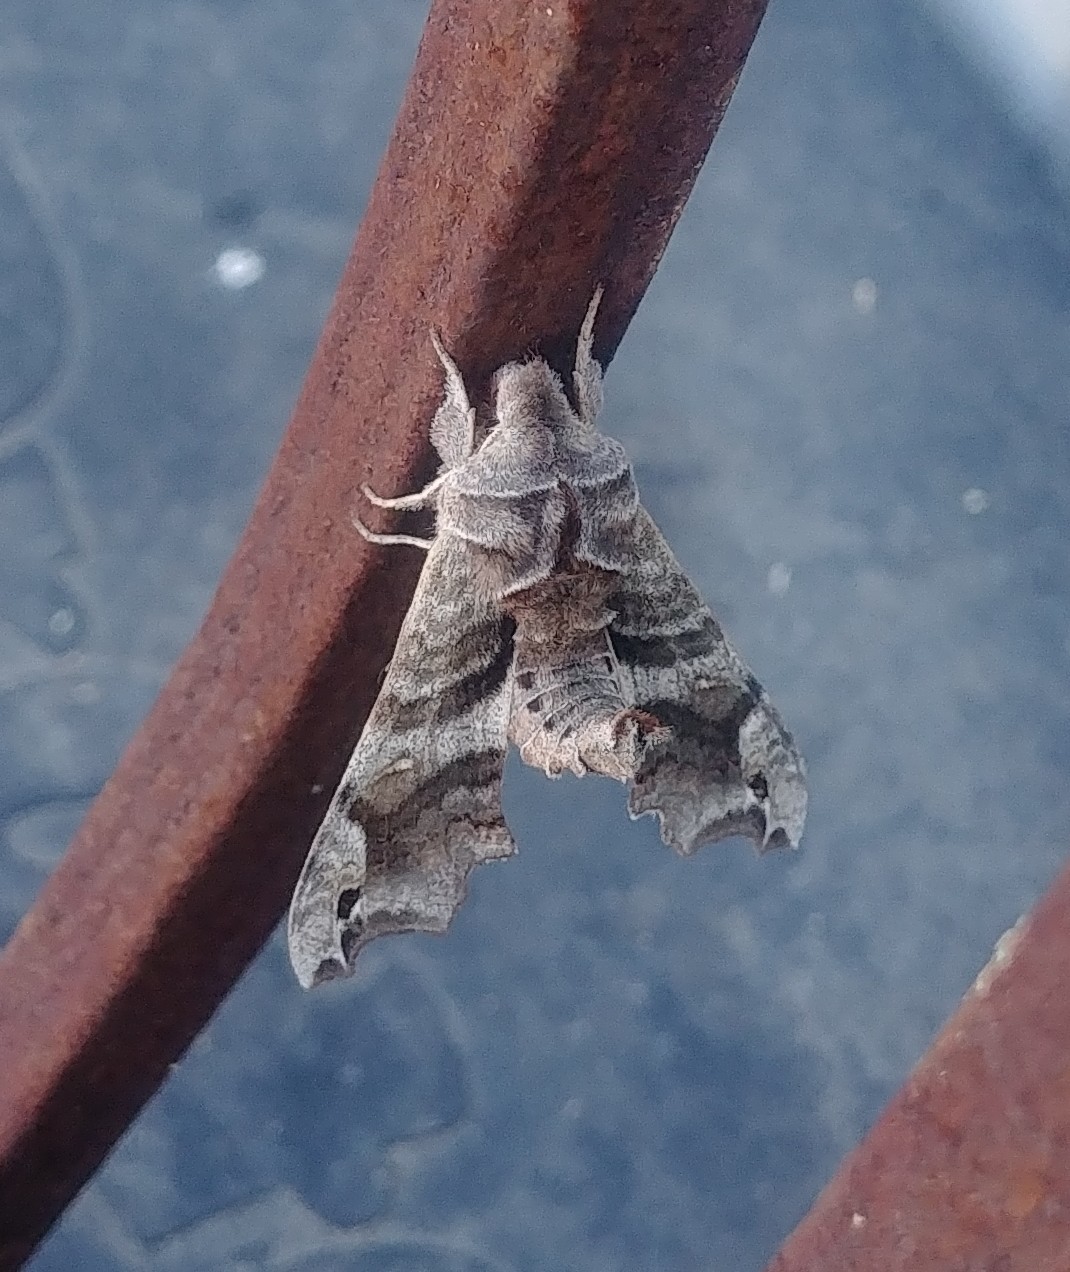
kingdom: Animalia
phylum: Arthropoda
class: Insecta
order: Lepidoptera
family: Sphingidae
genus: Deidamia
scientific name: Deidamia inscriptum
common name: Lettered sphinx
